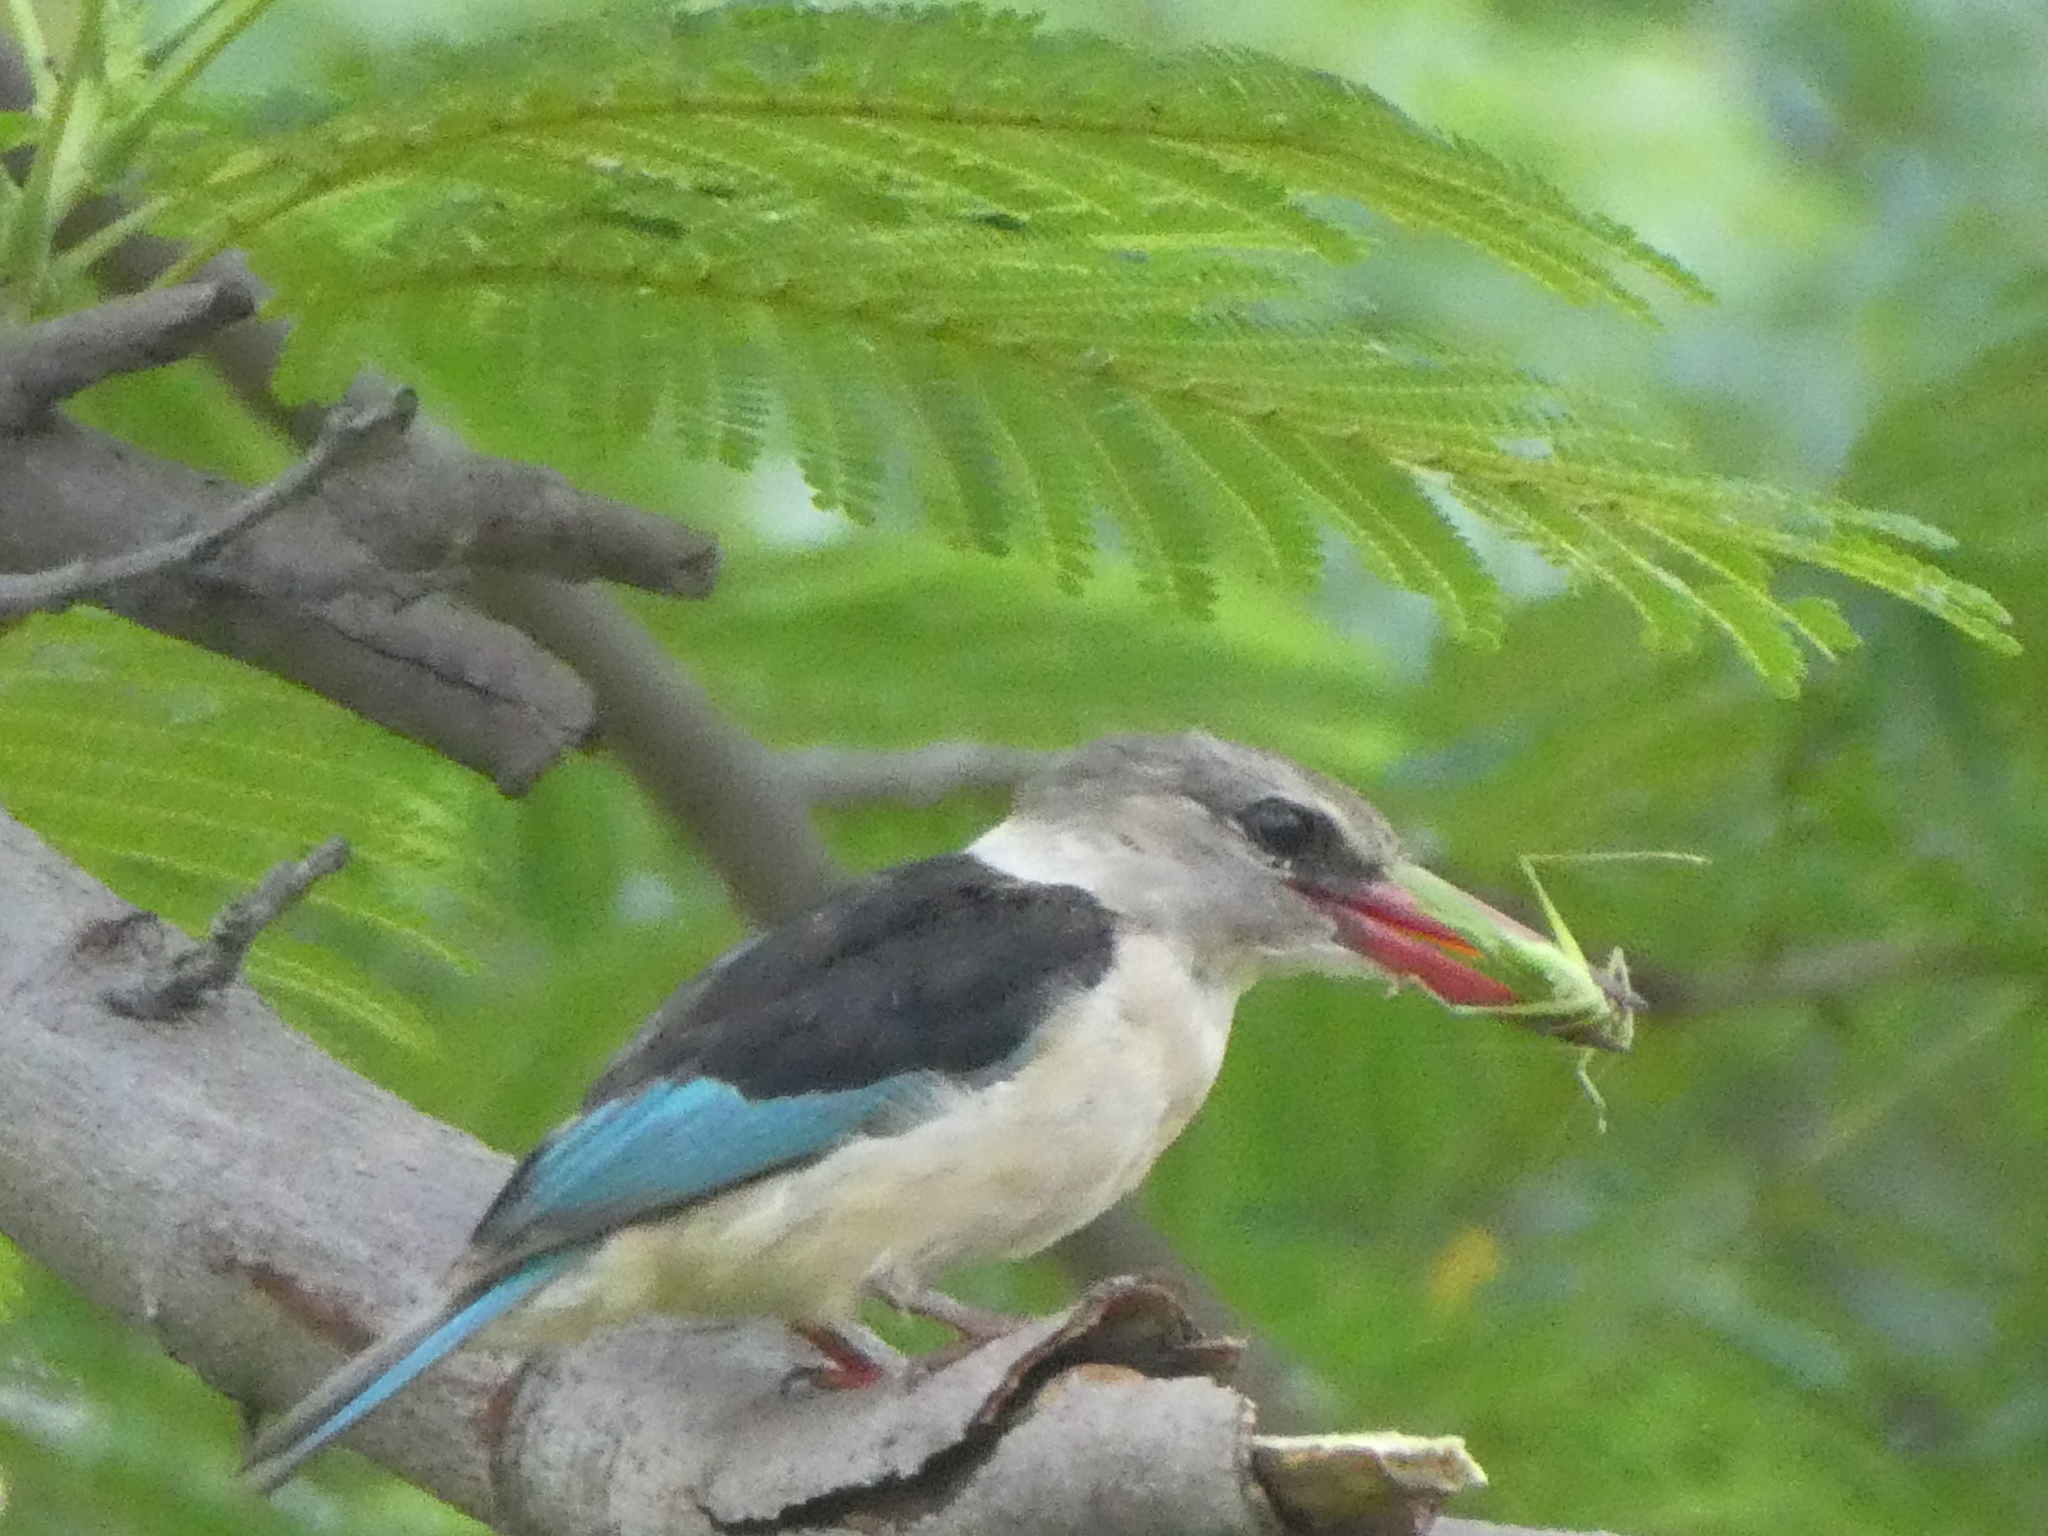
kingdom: Animalia
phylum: Chordata
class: Aves
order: Coraciiformes
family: Alcedinidae
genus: Halcyon
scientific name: Halcyon albiventris
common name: Brown-hooded kingfisher
